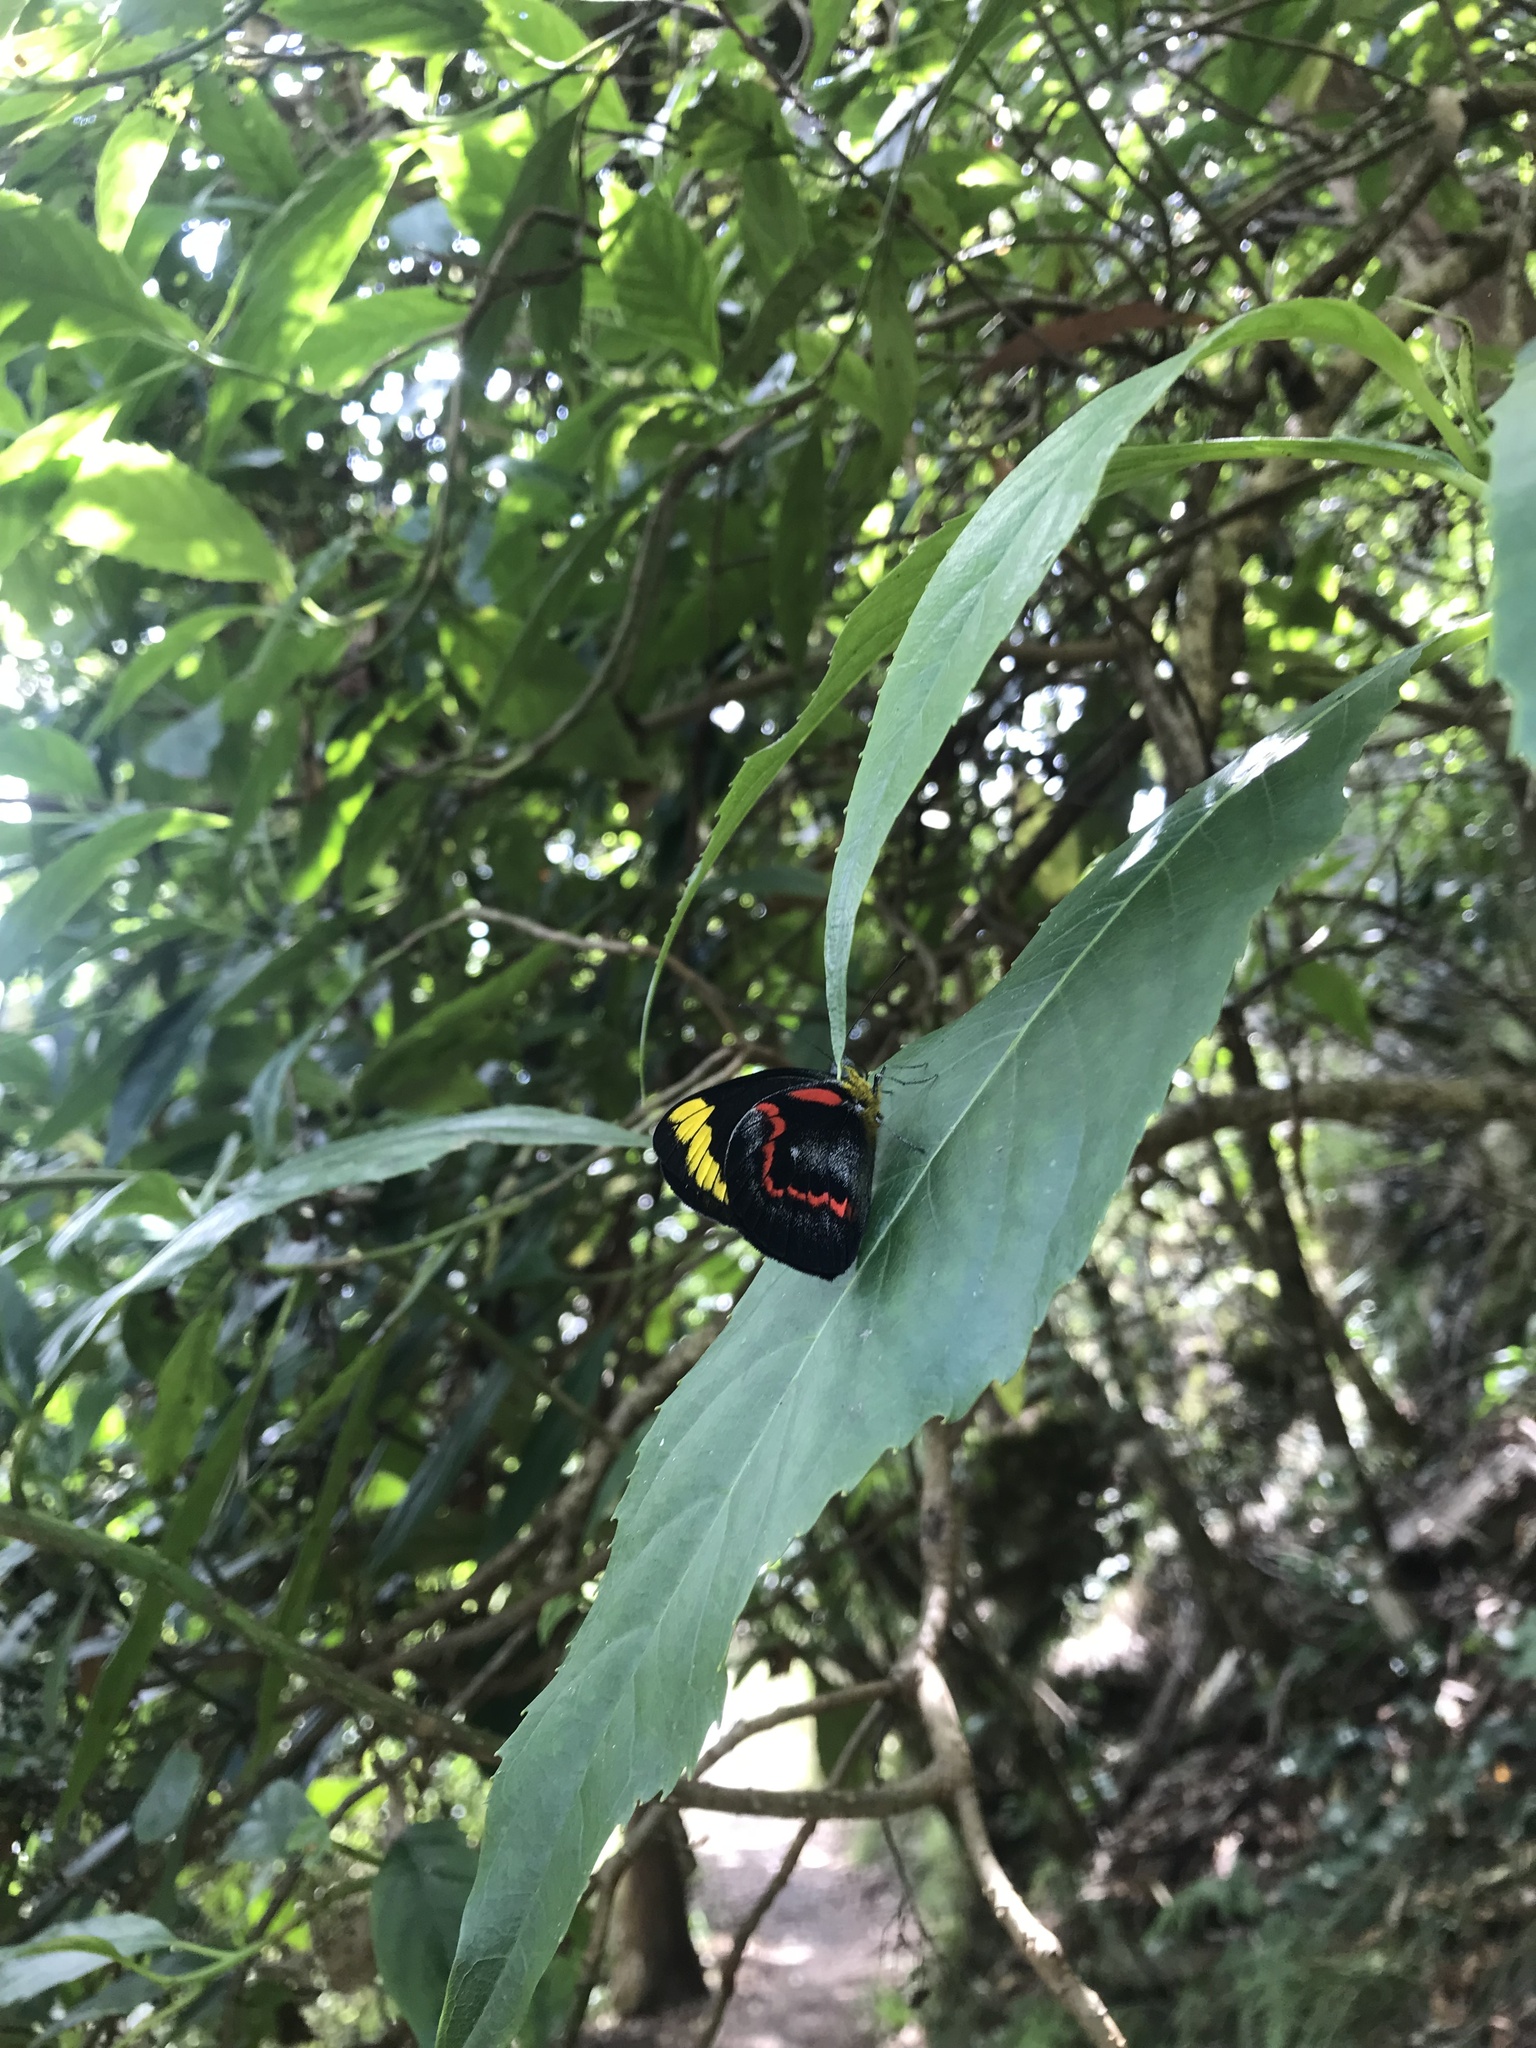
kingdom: Animalia
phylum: Arthropoda
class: Insecta
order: Lepidoptera
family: Pieridae
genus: Delias
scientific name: Delias nigrina
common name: Black jezebel
